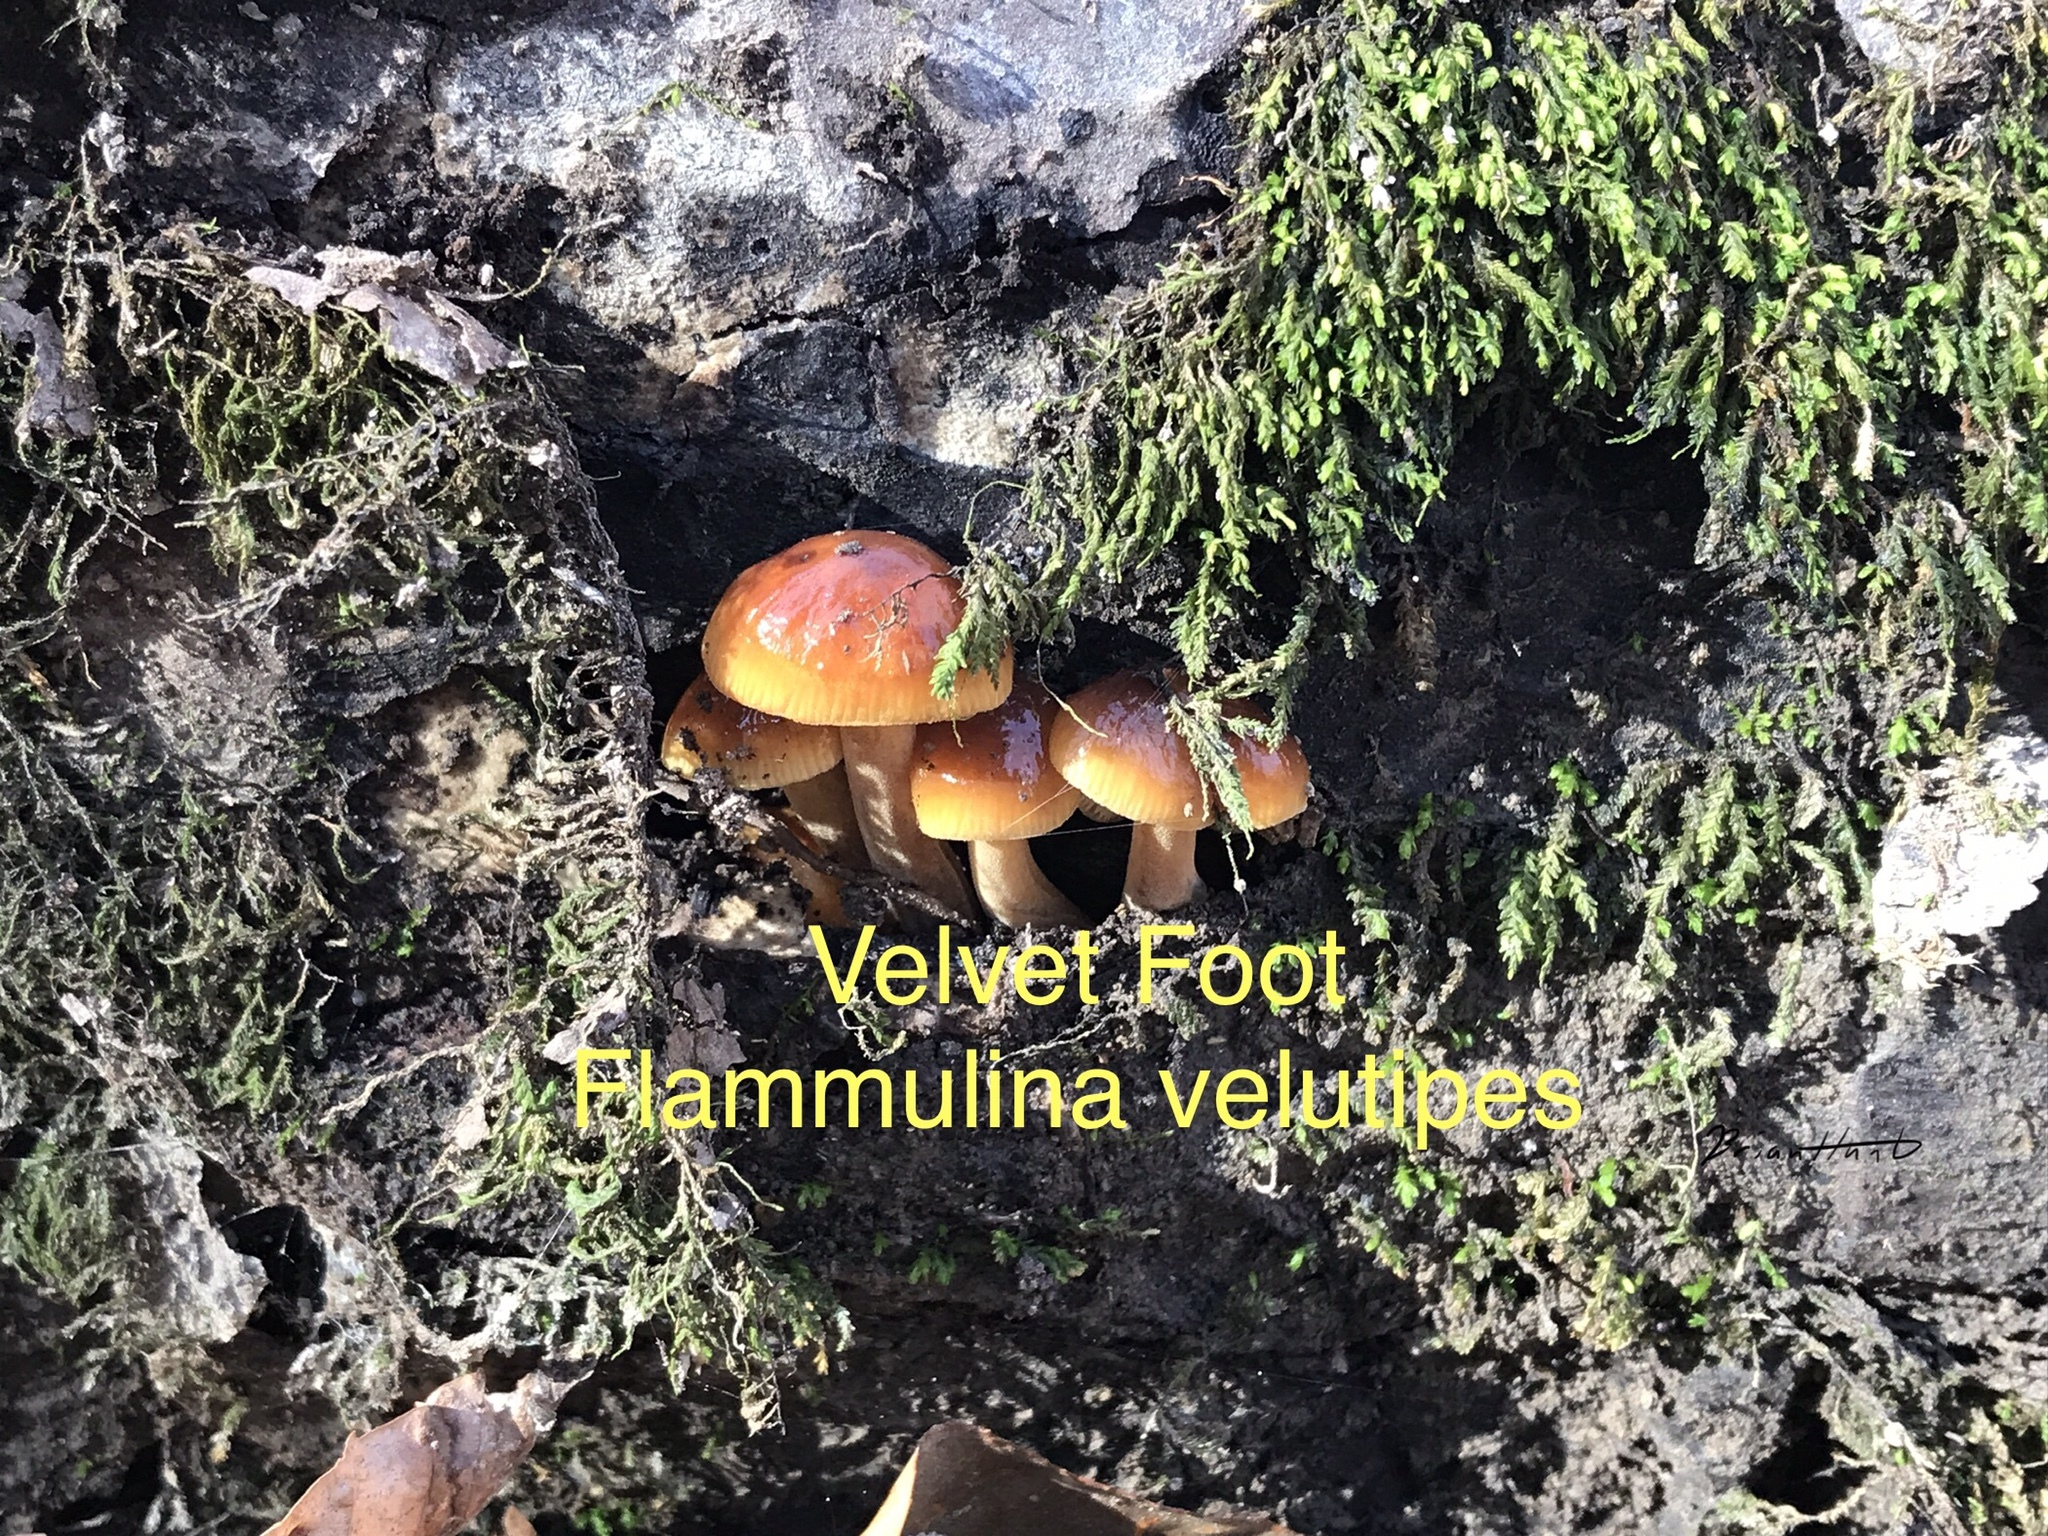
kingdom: Fungi
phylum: Basidiomycota
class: Agaricomycetes
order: Agaricales
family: Physalacriaceae
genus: Flammulina
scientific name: Flammulina velutipes
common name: Velvet shank
